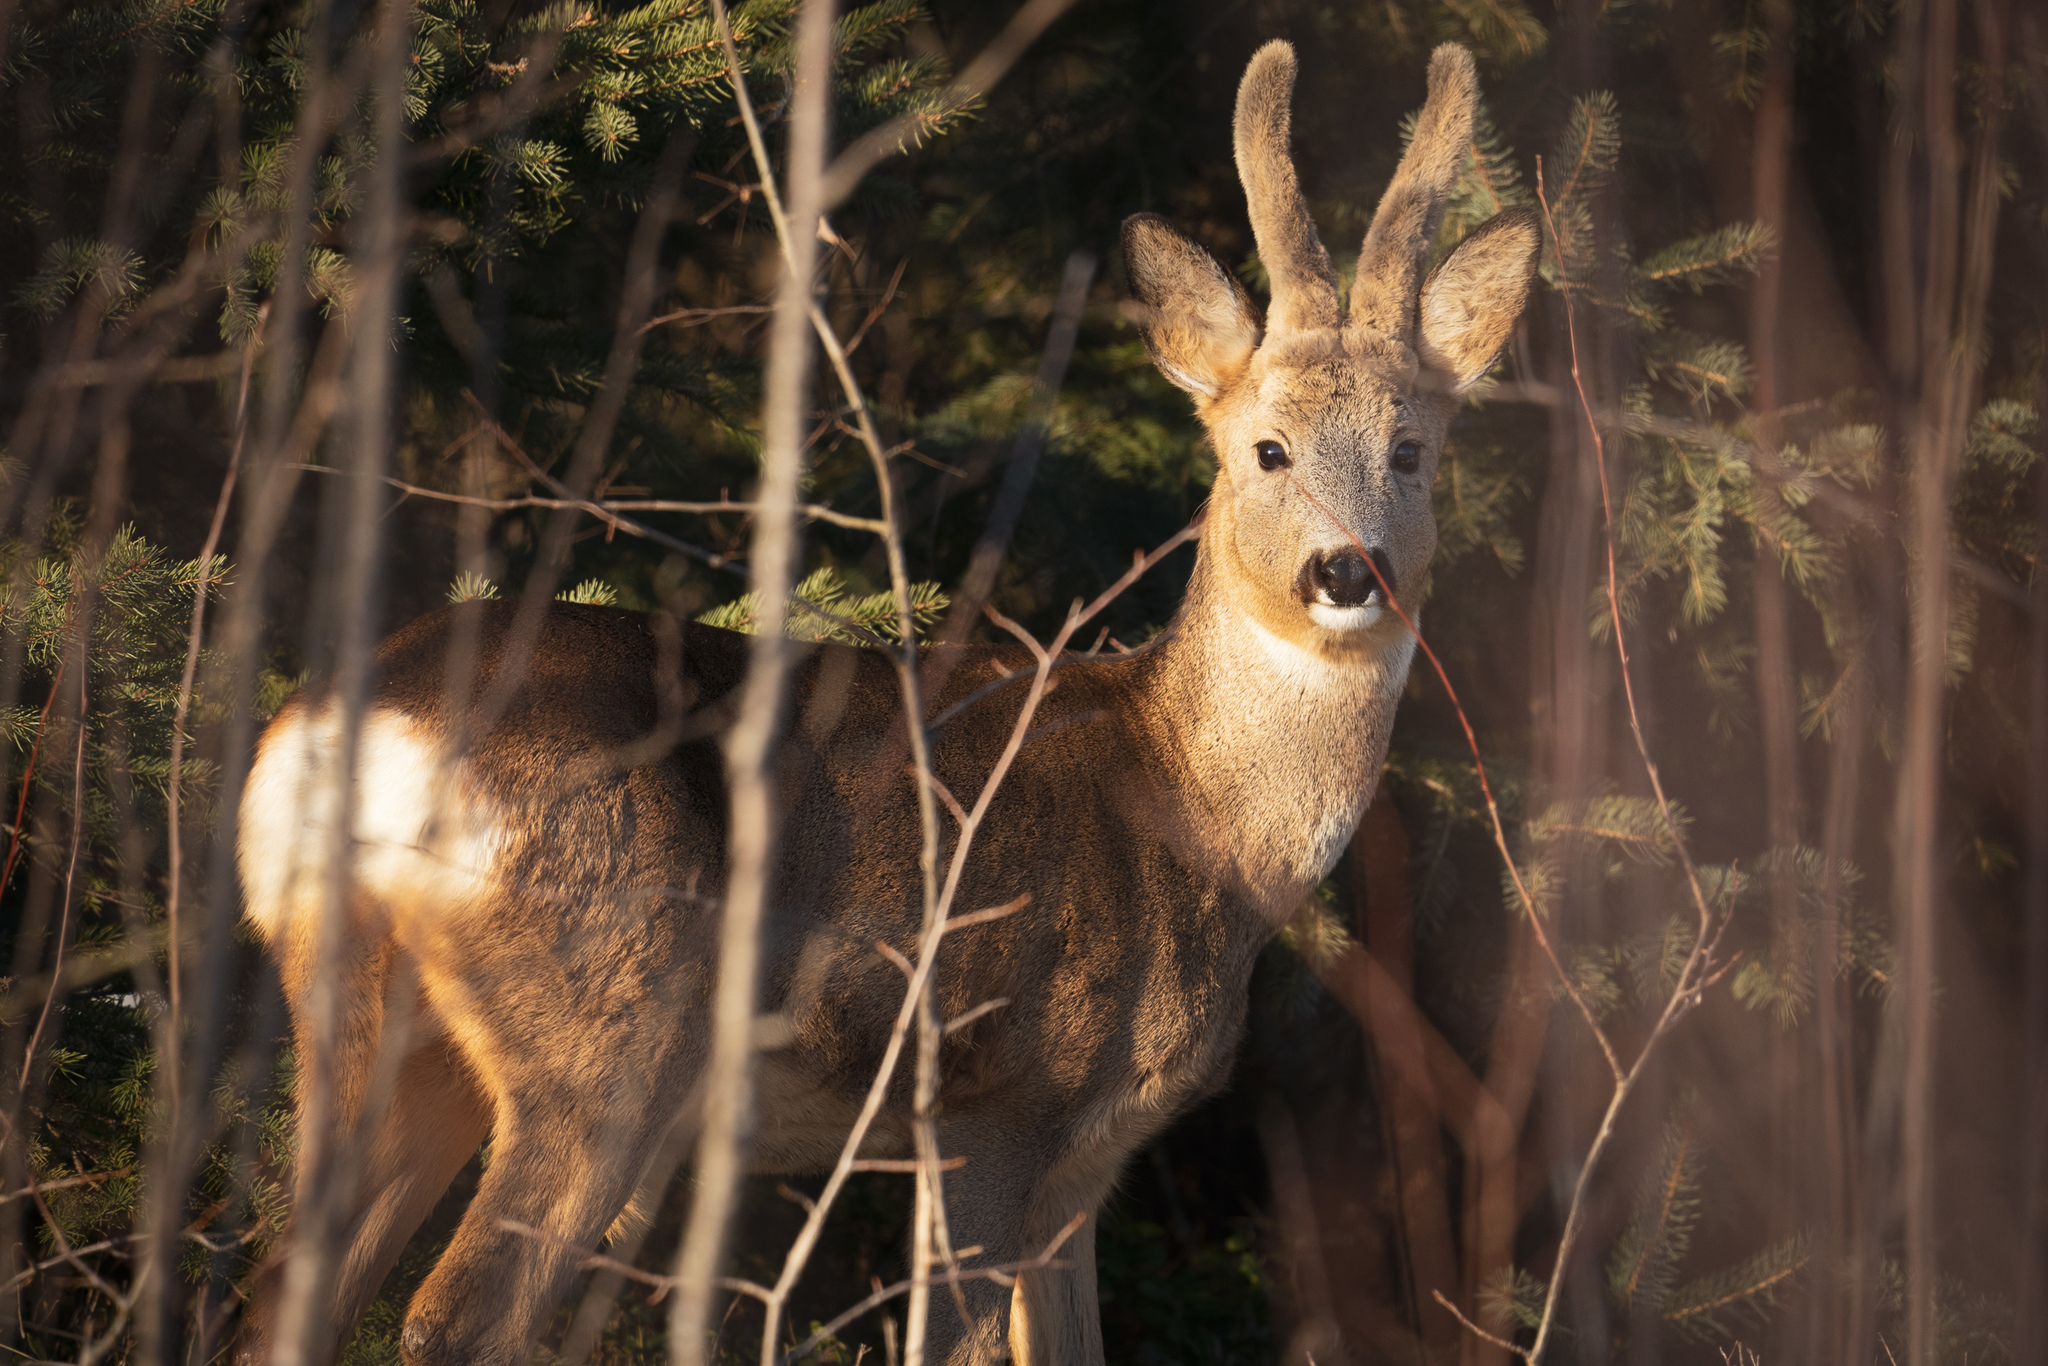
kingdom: Animalia
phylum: Chordata
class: Mammalia
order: Artiodactyla
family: Cervidae
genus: Capreolus
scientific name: Capreolus capreolus
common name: Western roe deer
